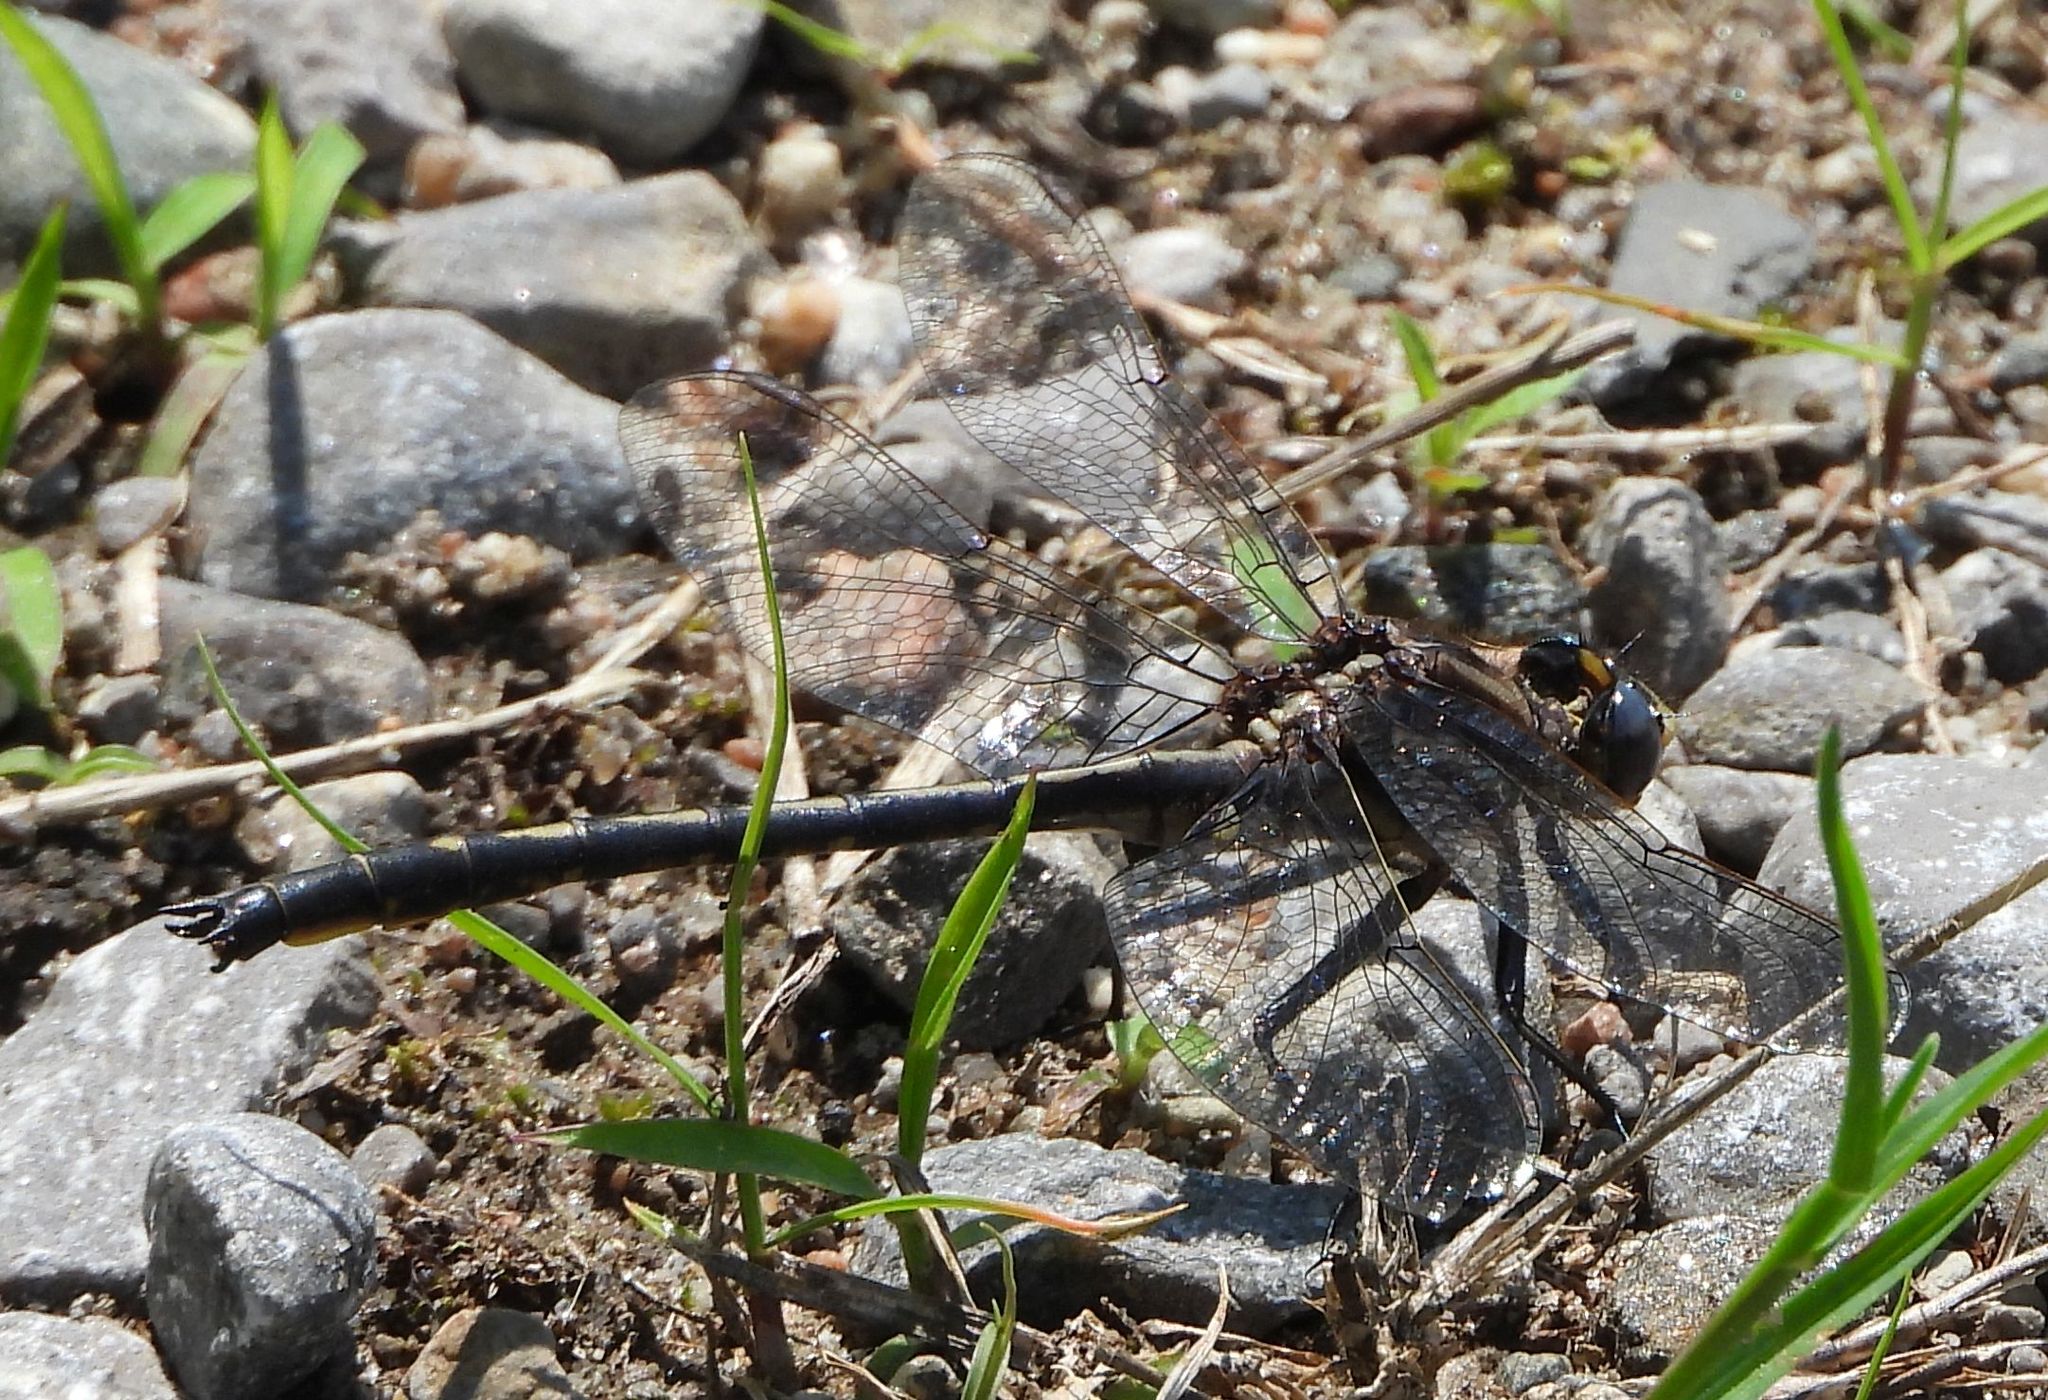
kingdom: Animalia
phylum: Arthropoda
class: Insecta
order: Odonata
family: Gomphidae
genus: Phanogomphus
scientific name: Phanogomphus spicatus
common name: Dusky clubtail
